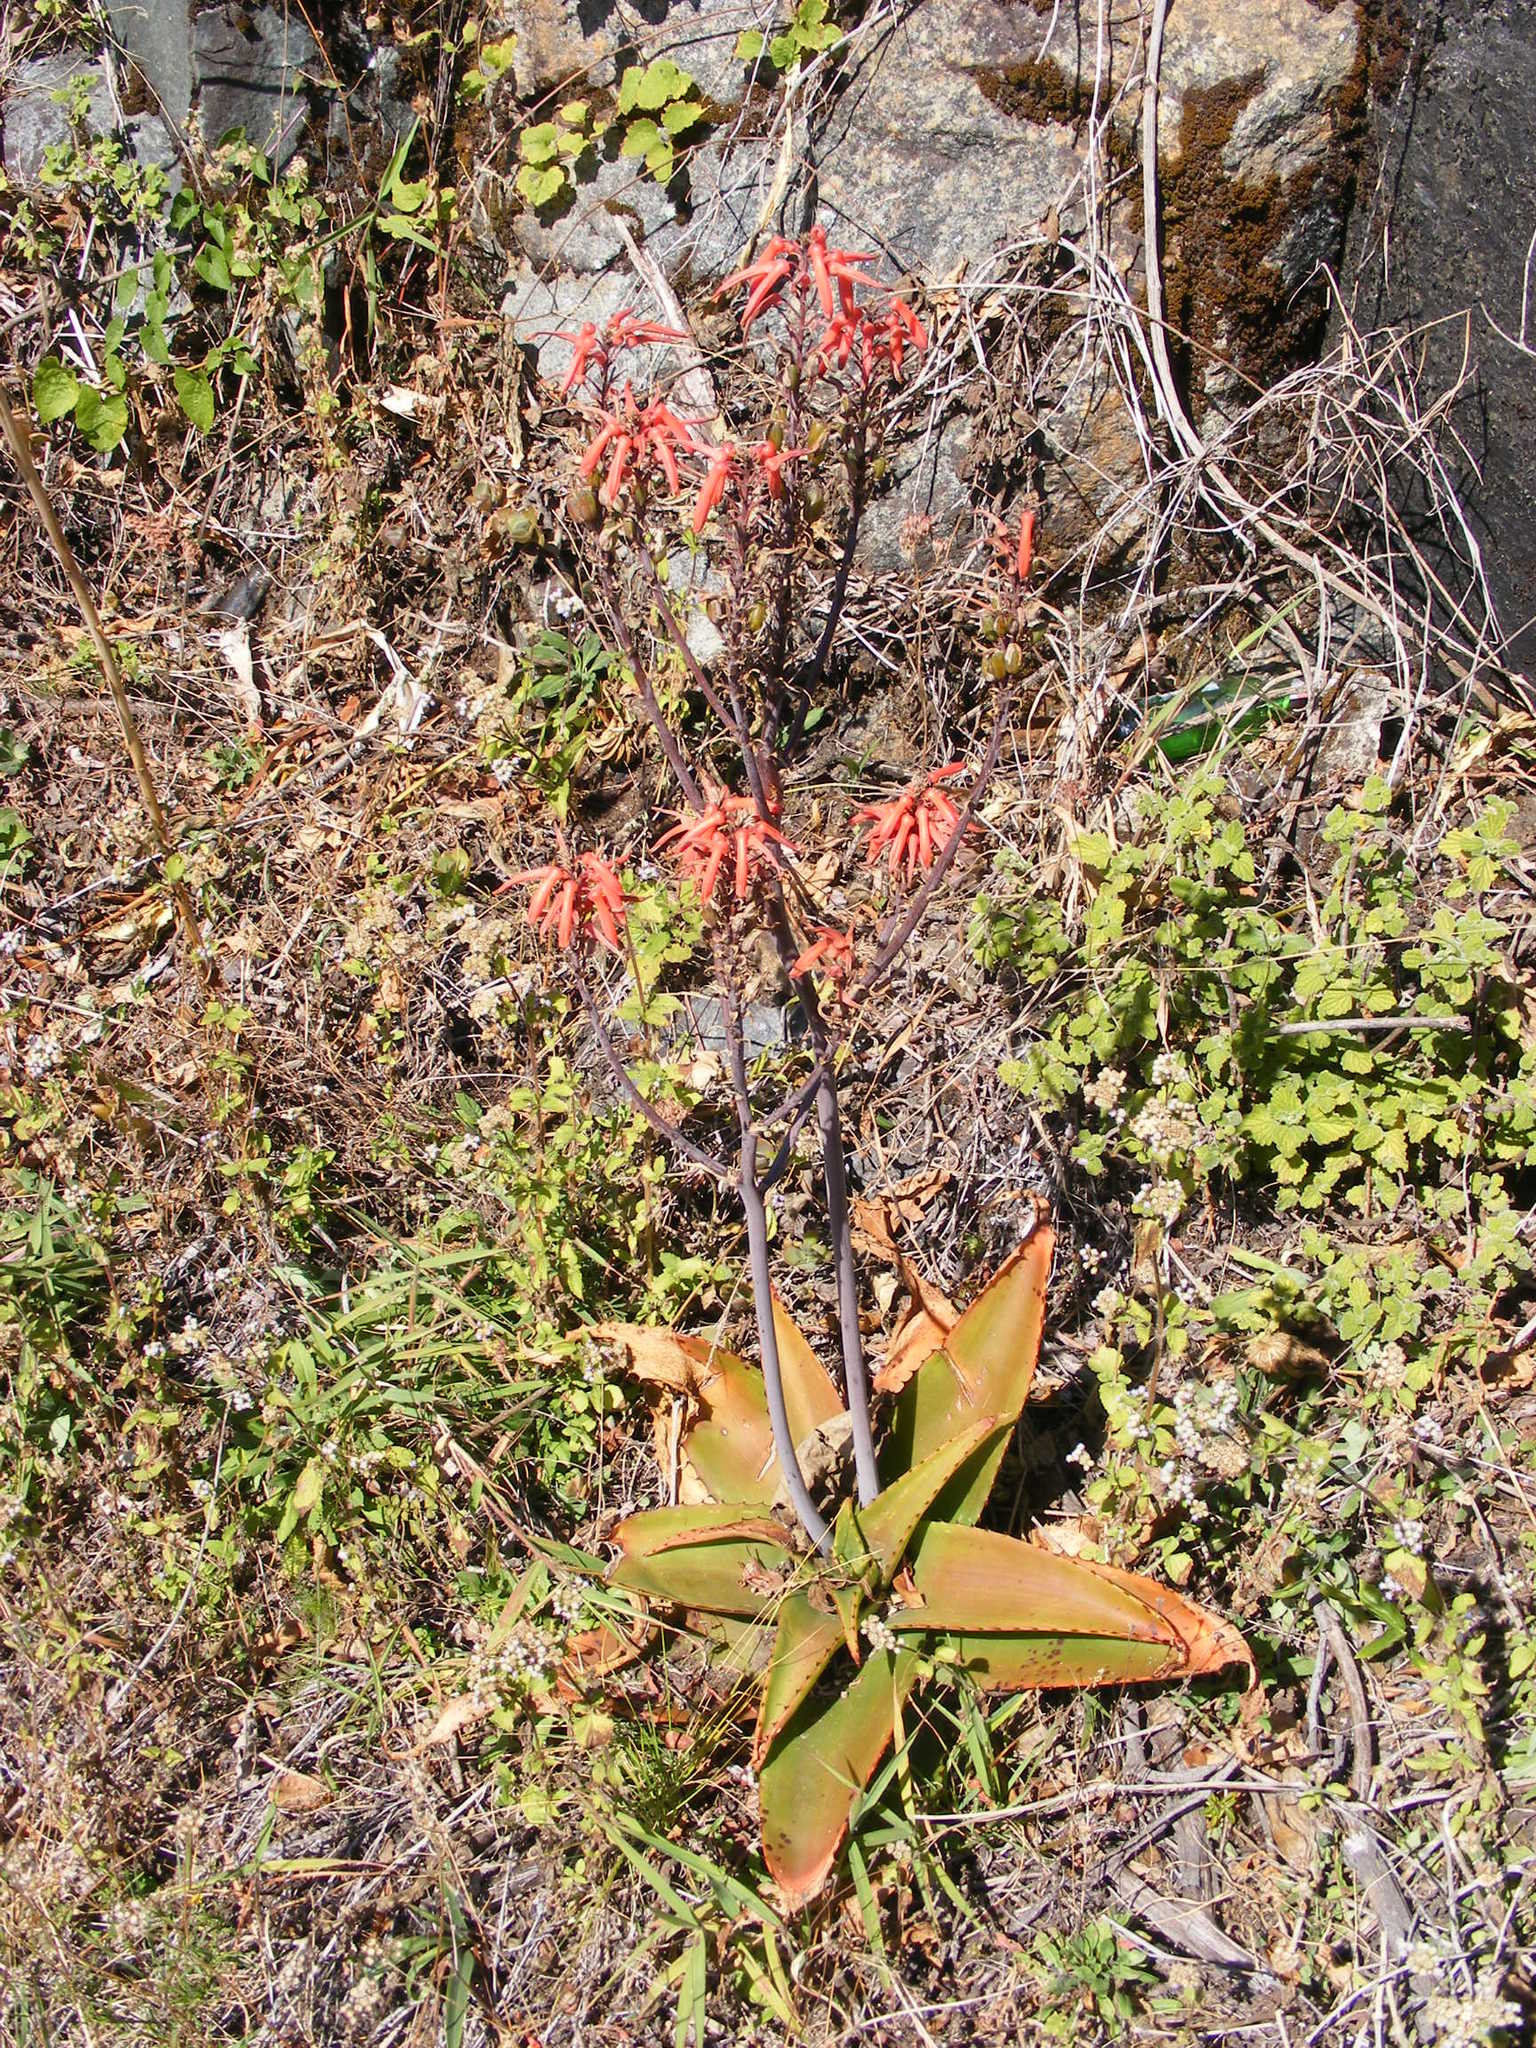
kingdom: Plantae
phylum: Tracheophyta
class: Liliopsida
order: Asparagales
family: Asphodelaceae
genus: Aloe
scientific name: Aloe affinis
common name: Spotted aloe
